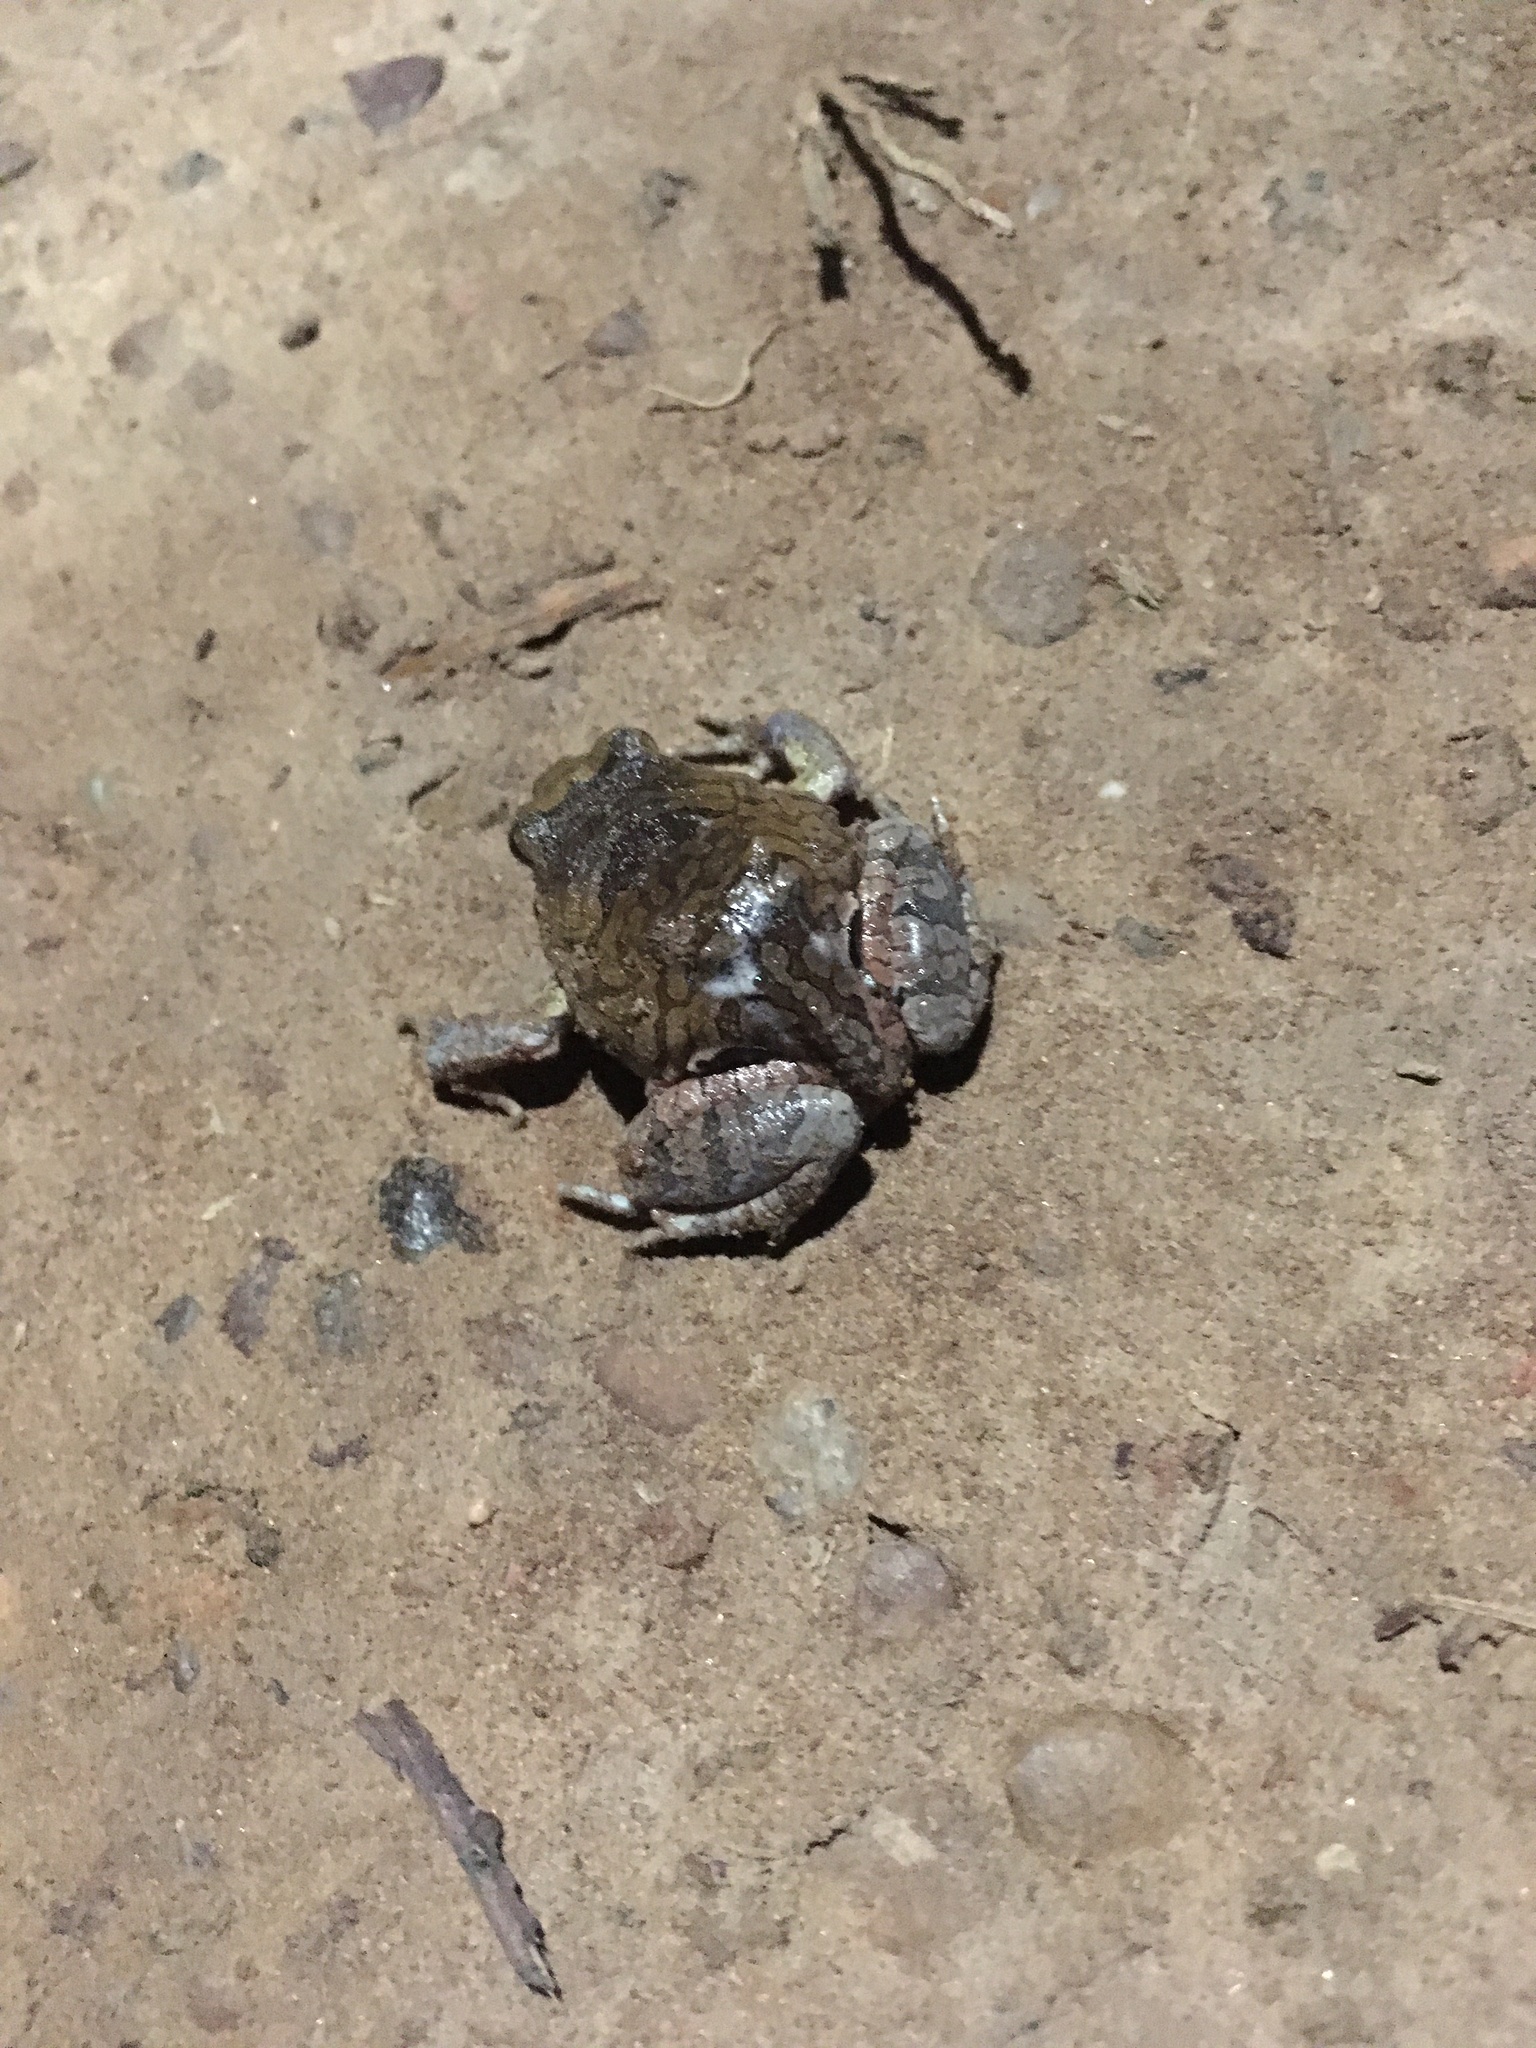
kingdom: Animalia
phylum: Chordata
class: Amphibia
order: Anura
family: Leptodactylidae
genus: Physalaemus
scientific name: Physalaemus nattereri
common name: Cuyaba dwarf frog
